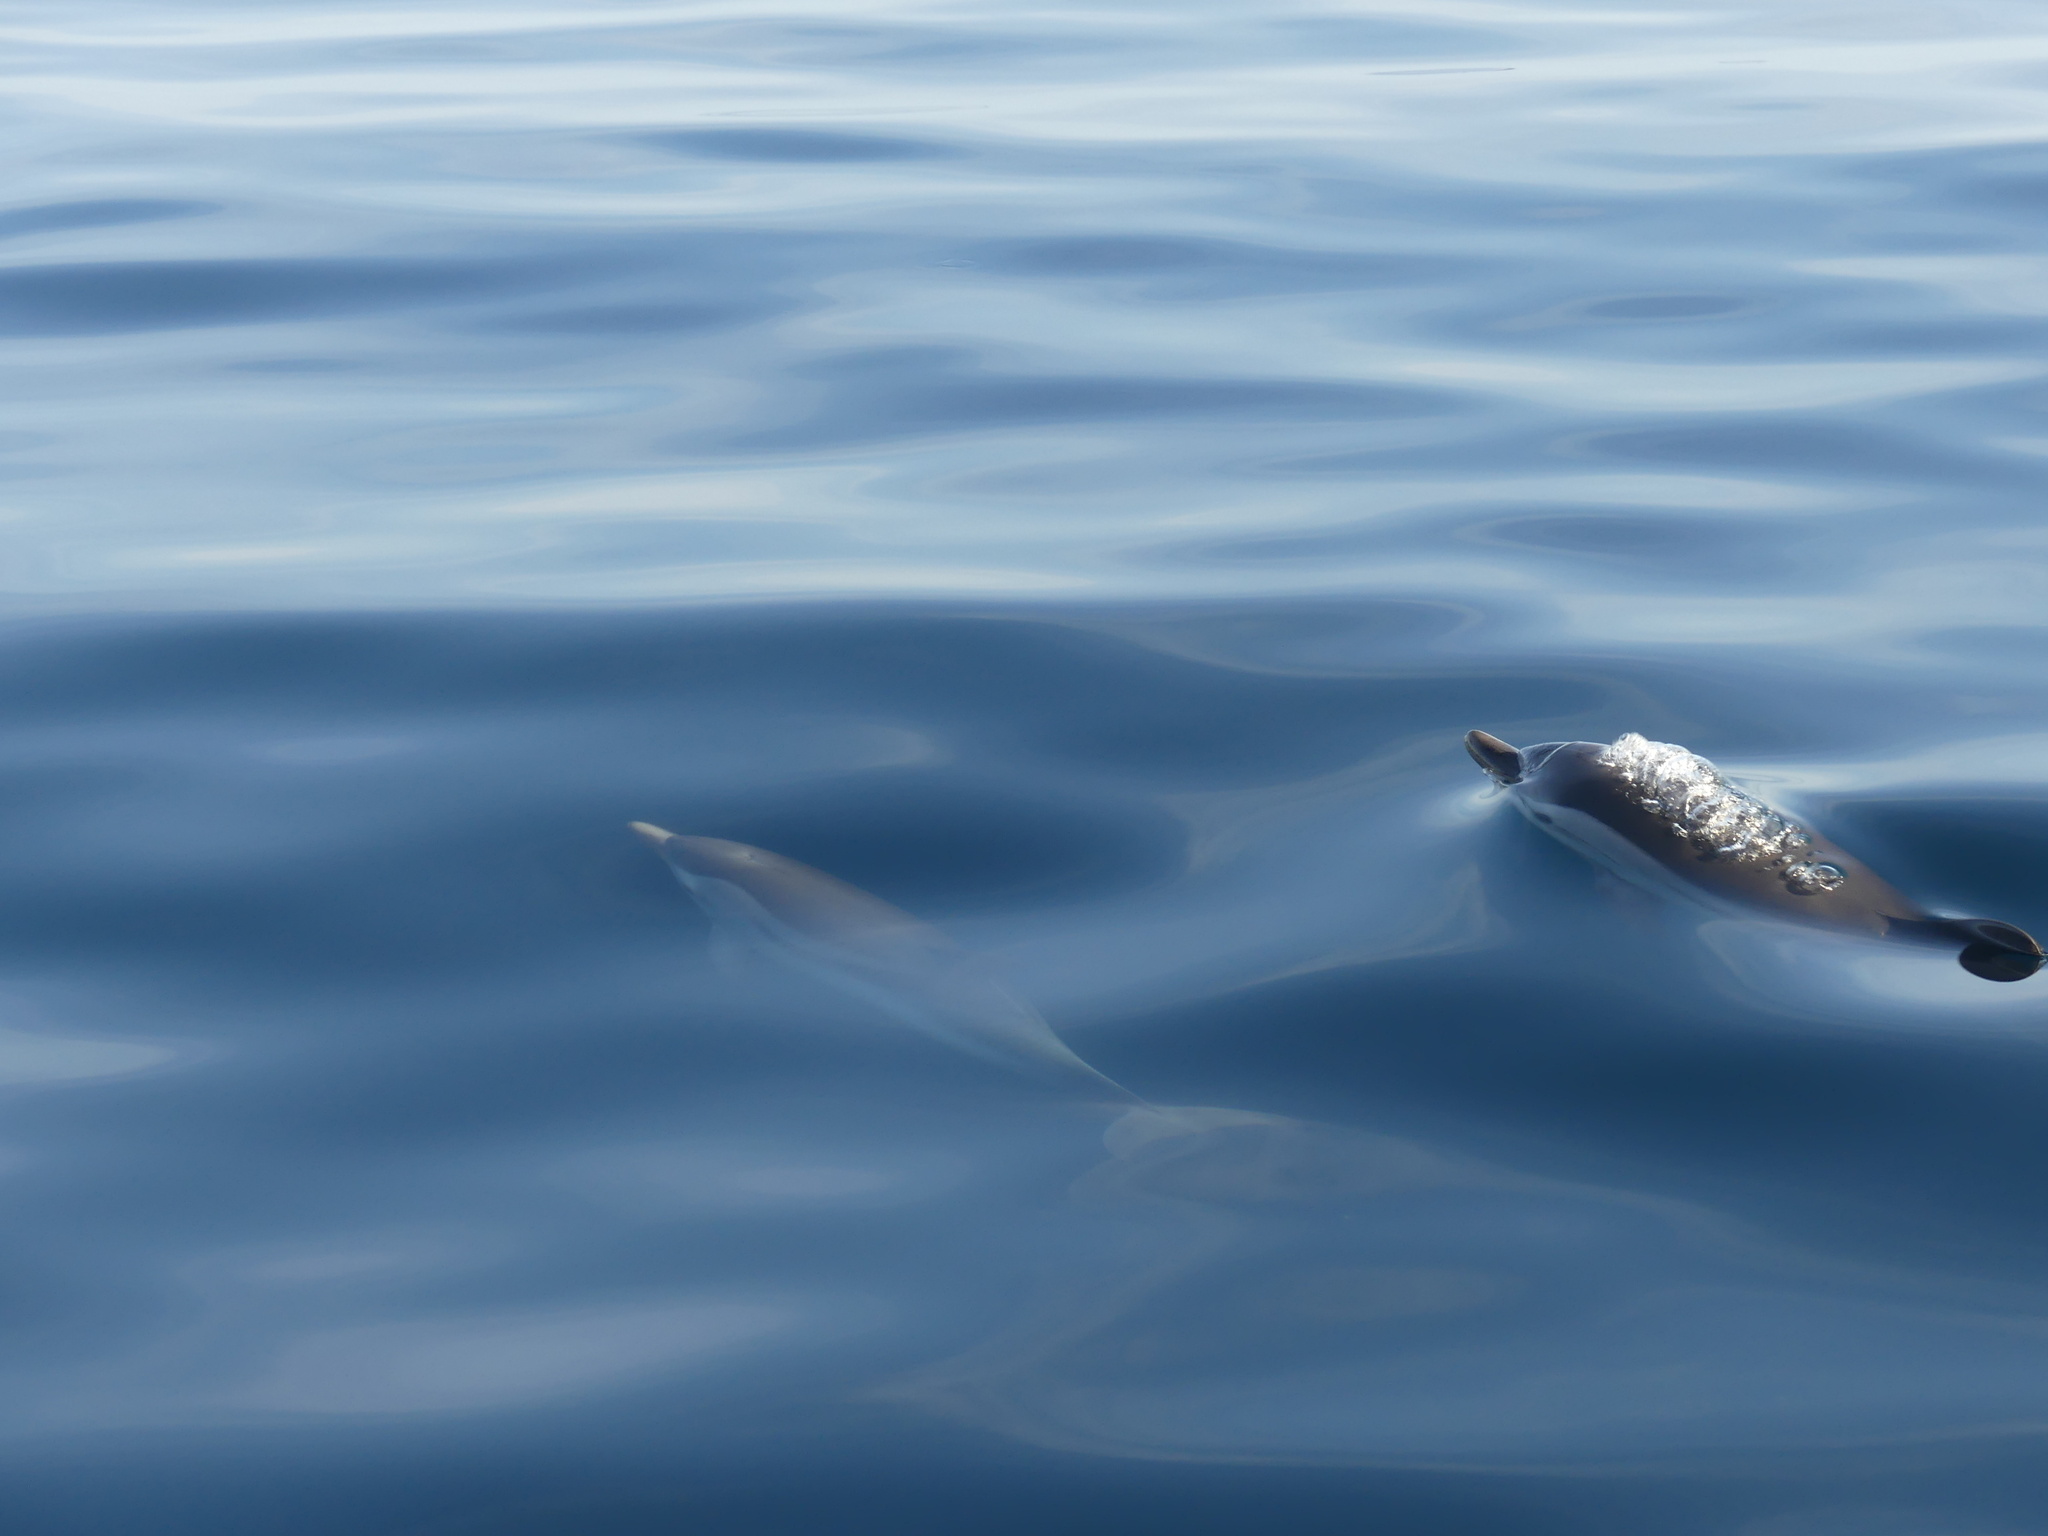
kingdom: Animalia
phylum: Chordata
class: Mammalia
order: Cetacea
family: Delphinidae
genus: Stenella
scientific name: Stenella coeruleoalba
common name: Striped dolphin
